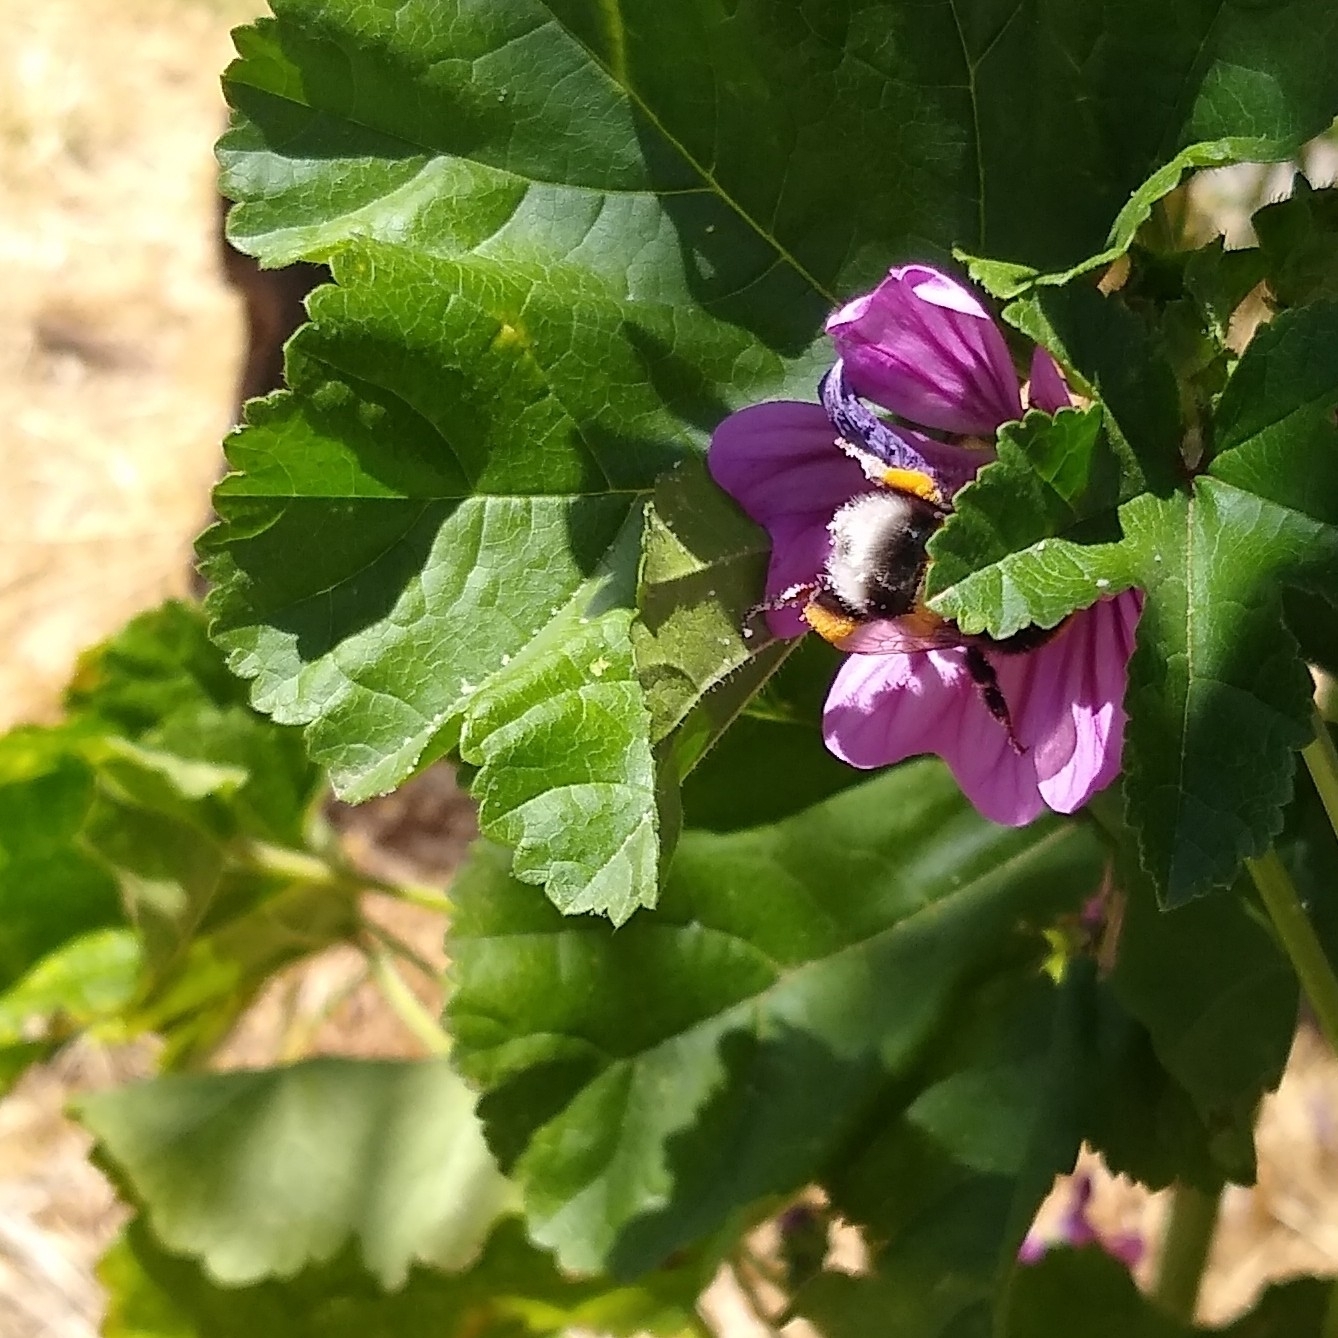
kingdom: Animalia
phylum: Arthropoda
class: Insecta
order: Hymenoptera
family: Apidae
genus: Bombus
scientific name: Bombus terrestris
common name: Buff-tailed bumblebee
